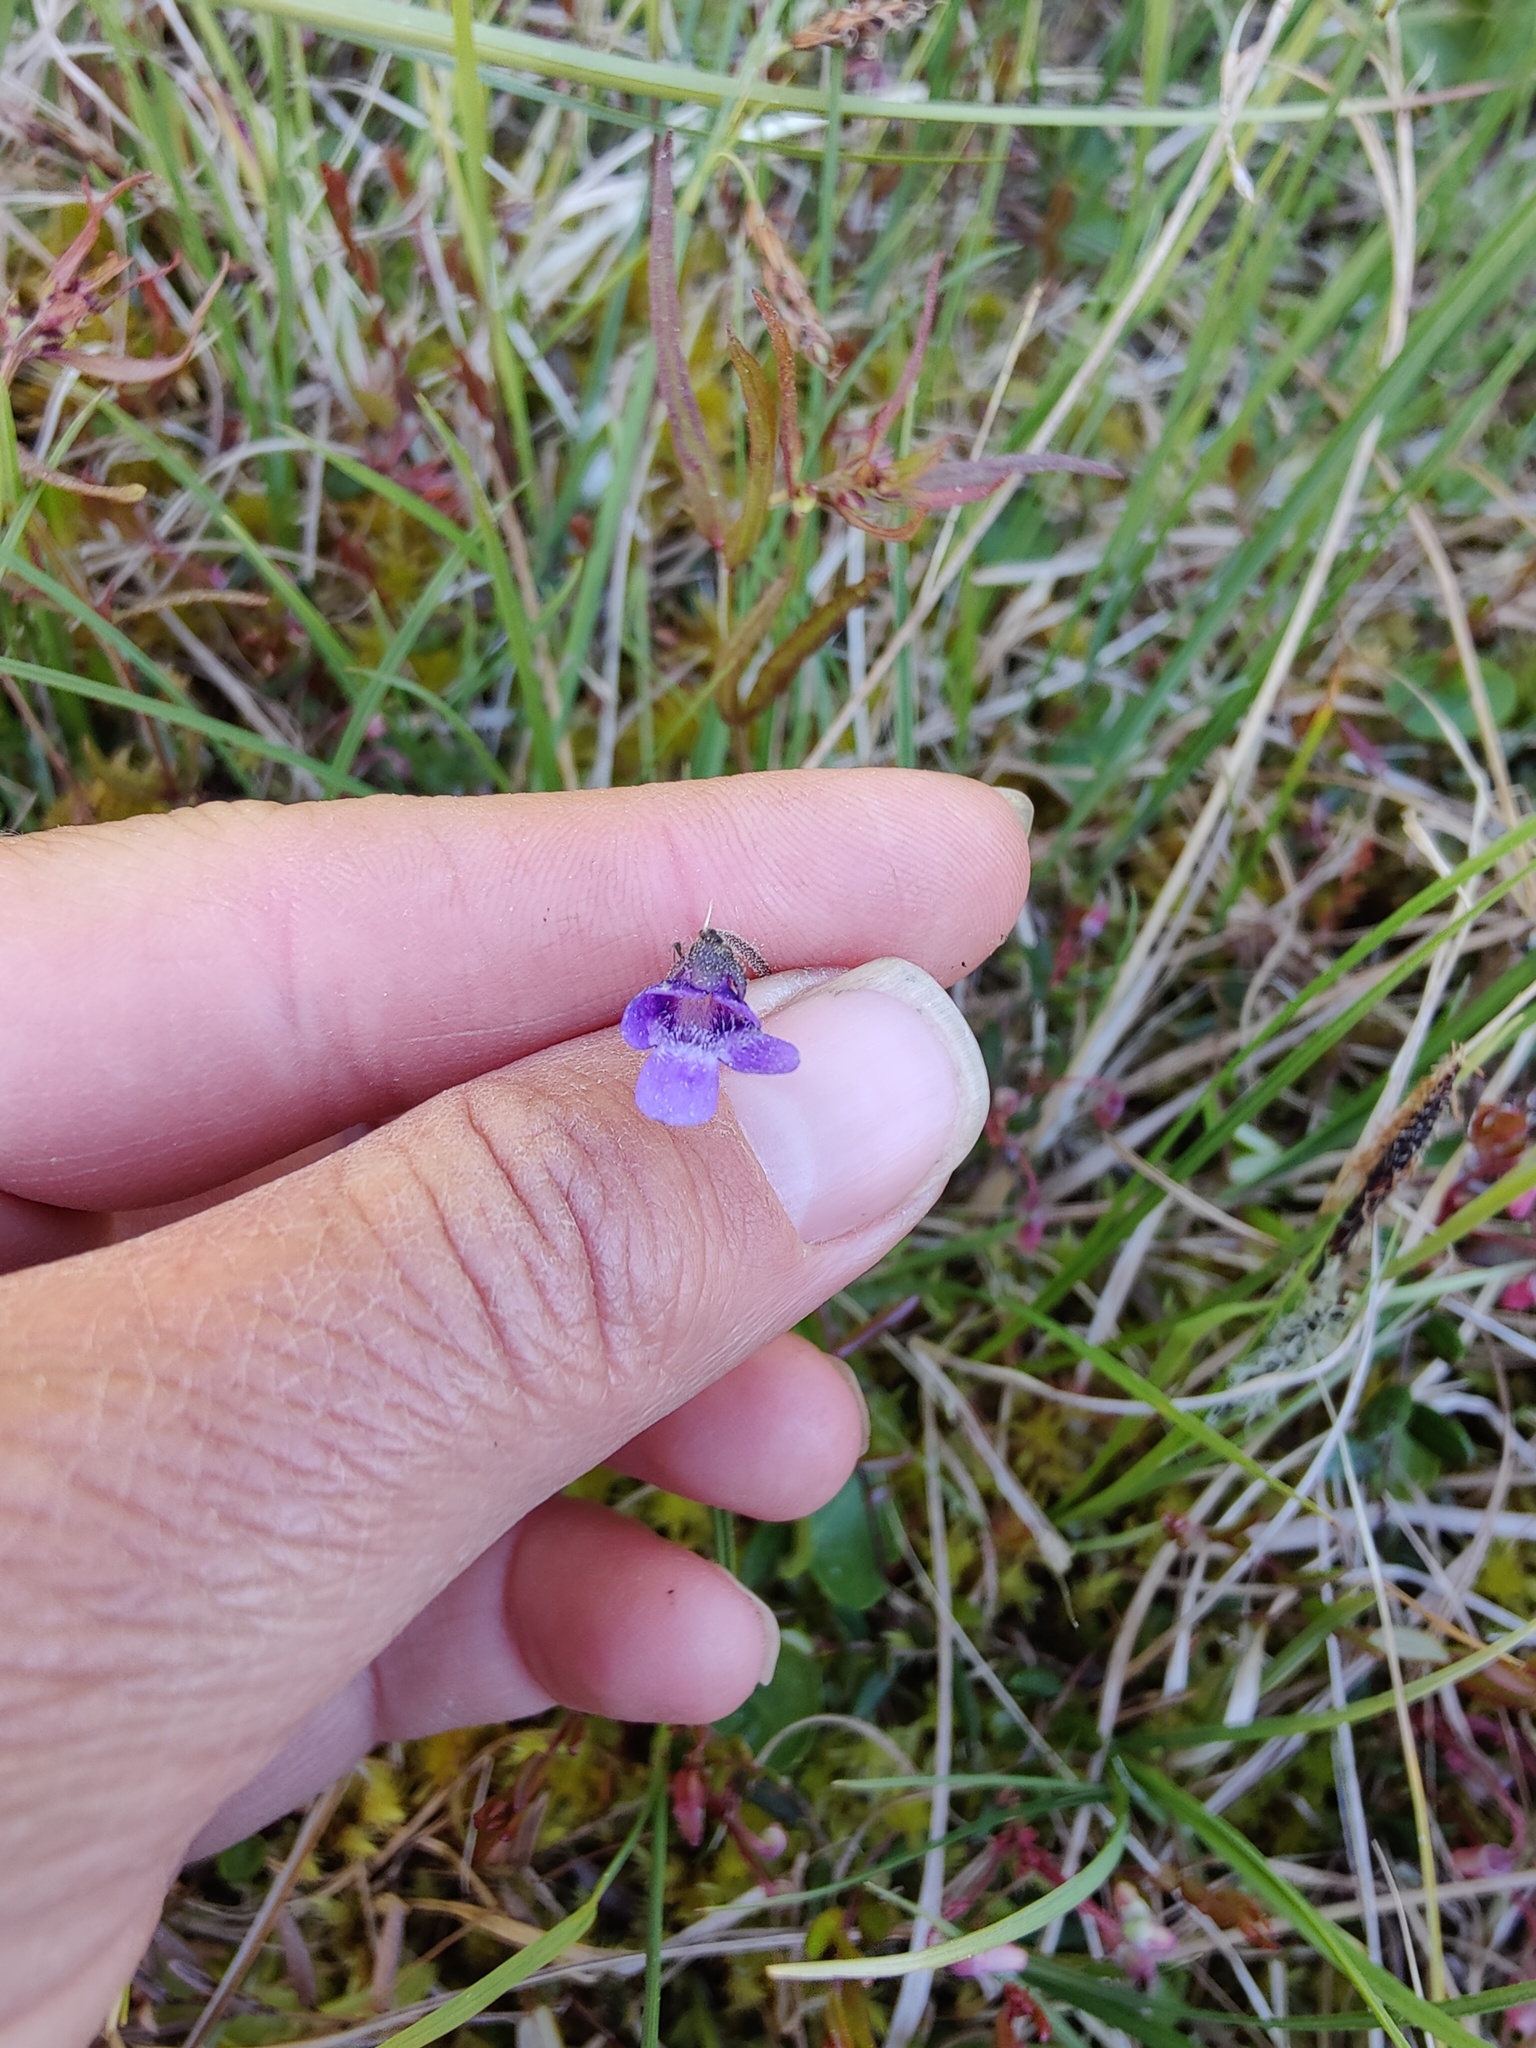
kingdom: Plantae
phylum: Tracheophyta
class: Magnoliopsida
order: Lamiales
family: Lentibulariaceae
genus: Pinguicula
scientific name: Pinguicula vulgaris
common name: Common butterwort
